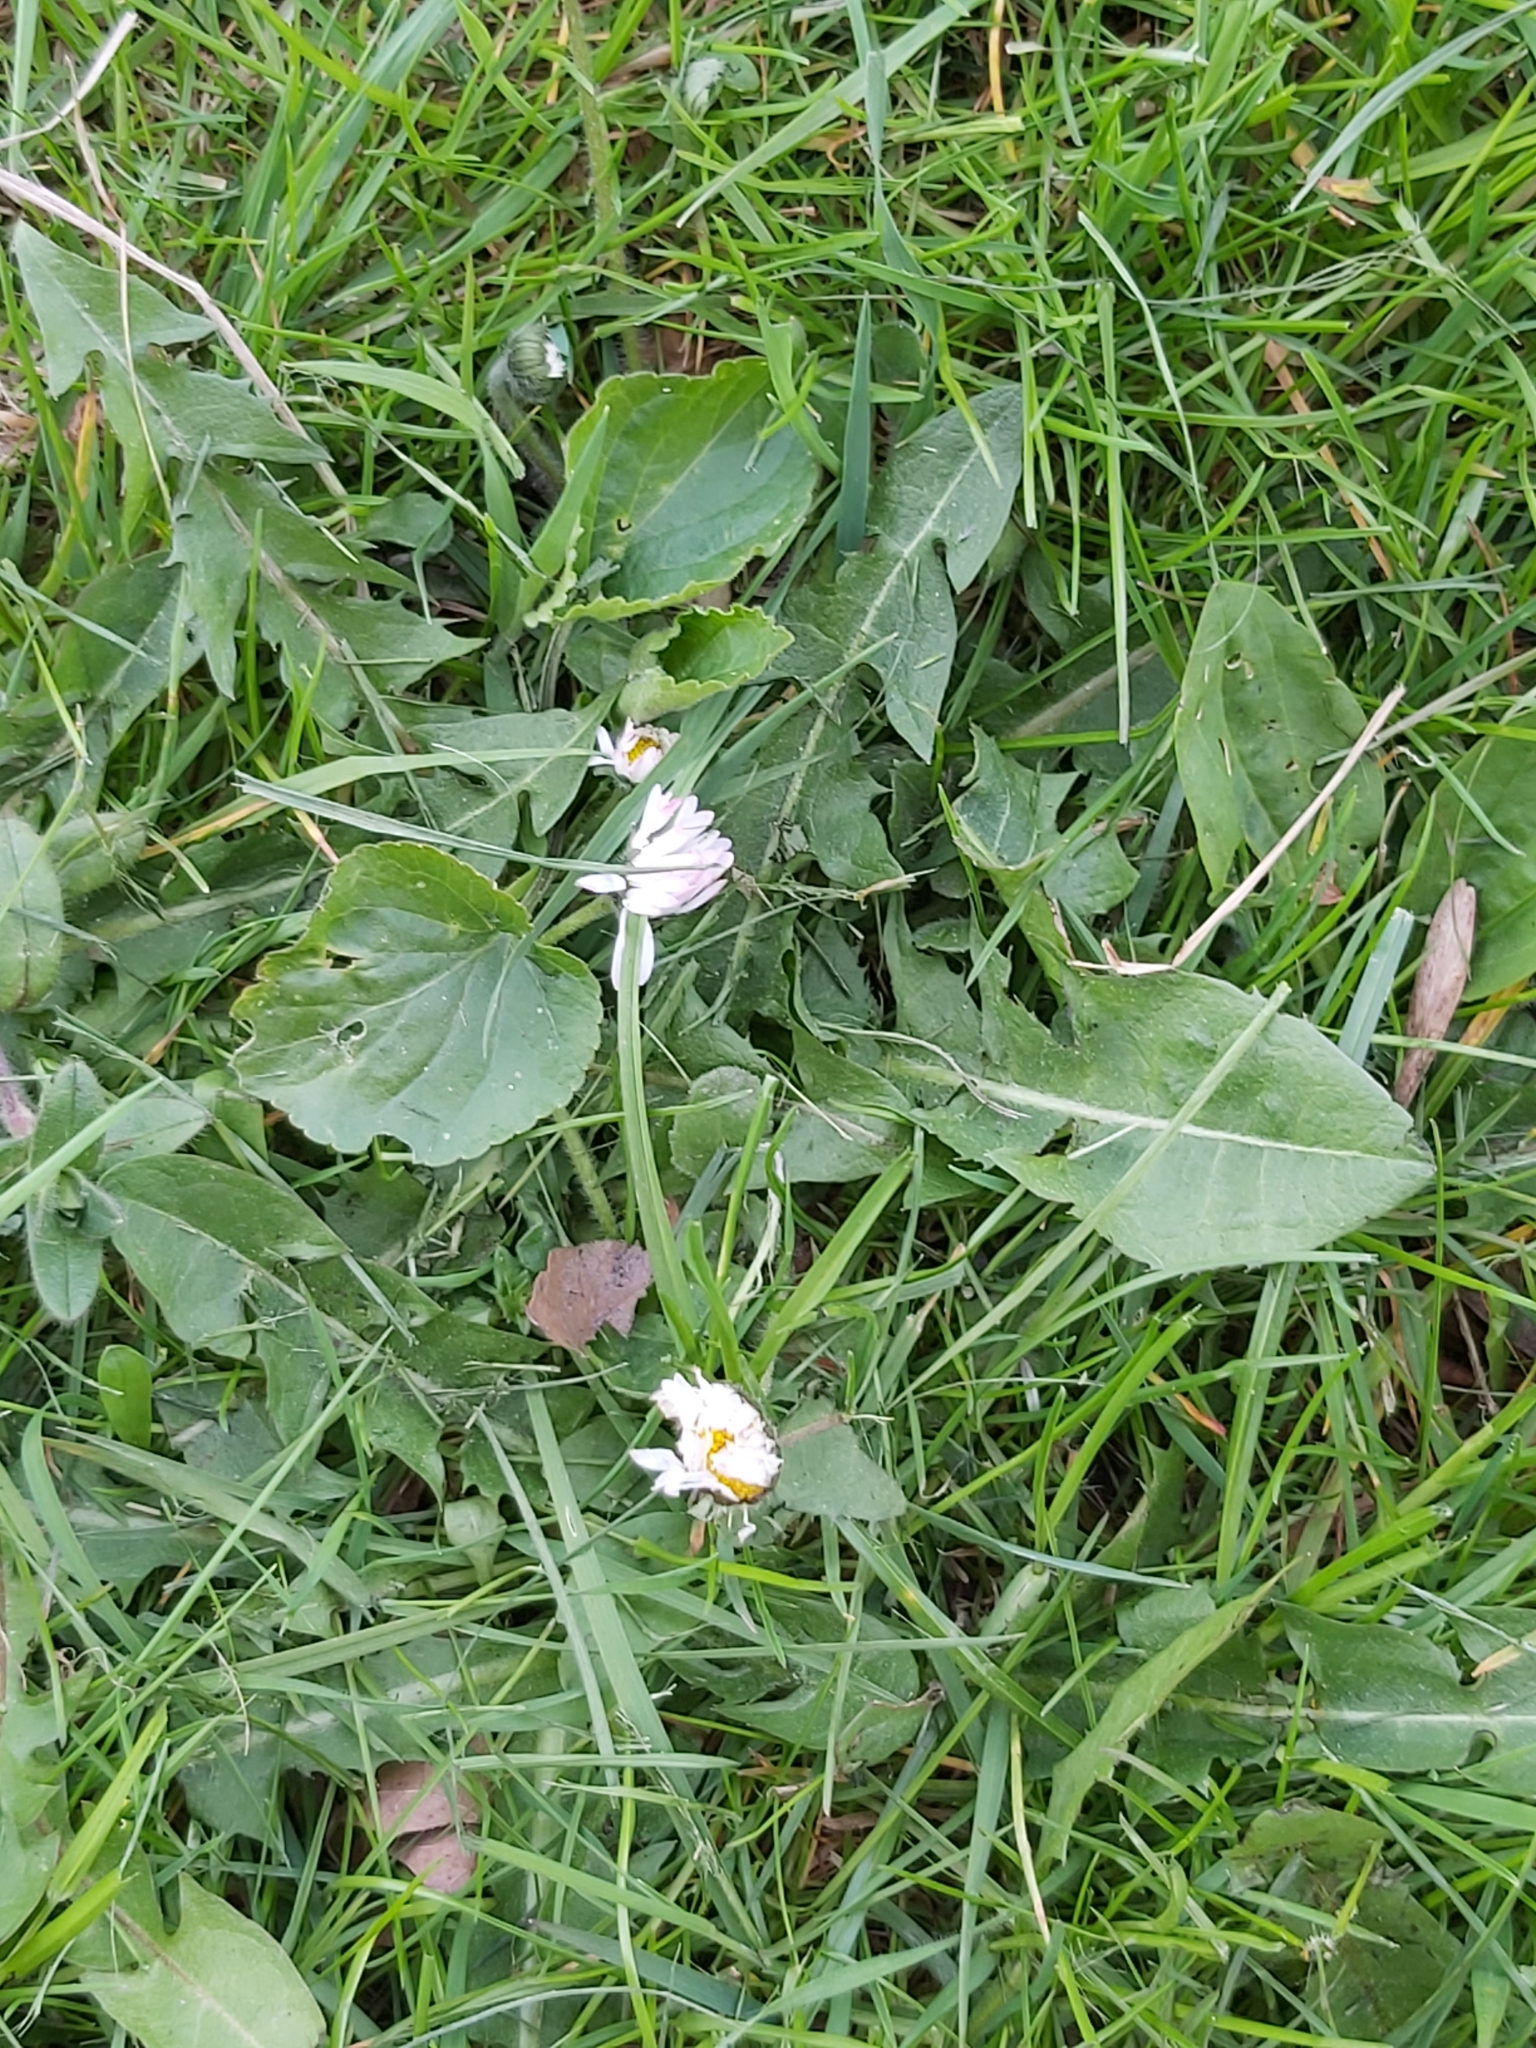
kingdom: Plantae
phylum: Tracheophyta
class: Magnoliopsida
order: Asterales
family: Asteraceae
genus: Bellis
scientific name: Bellis perennis
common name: Lawndaisy
